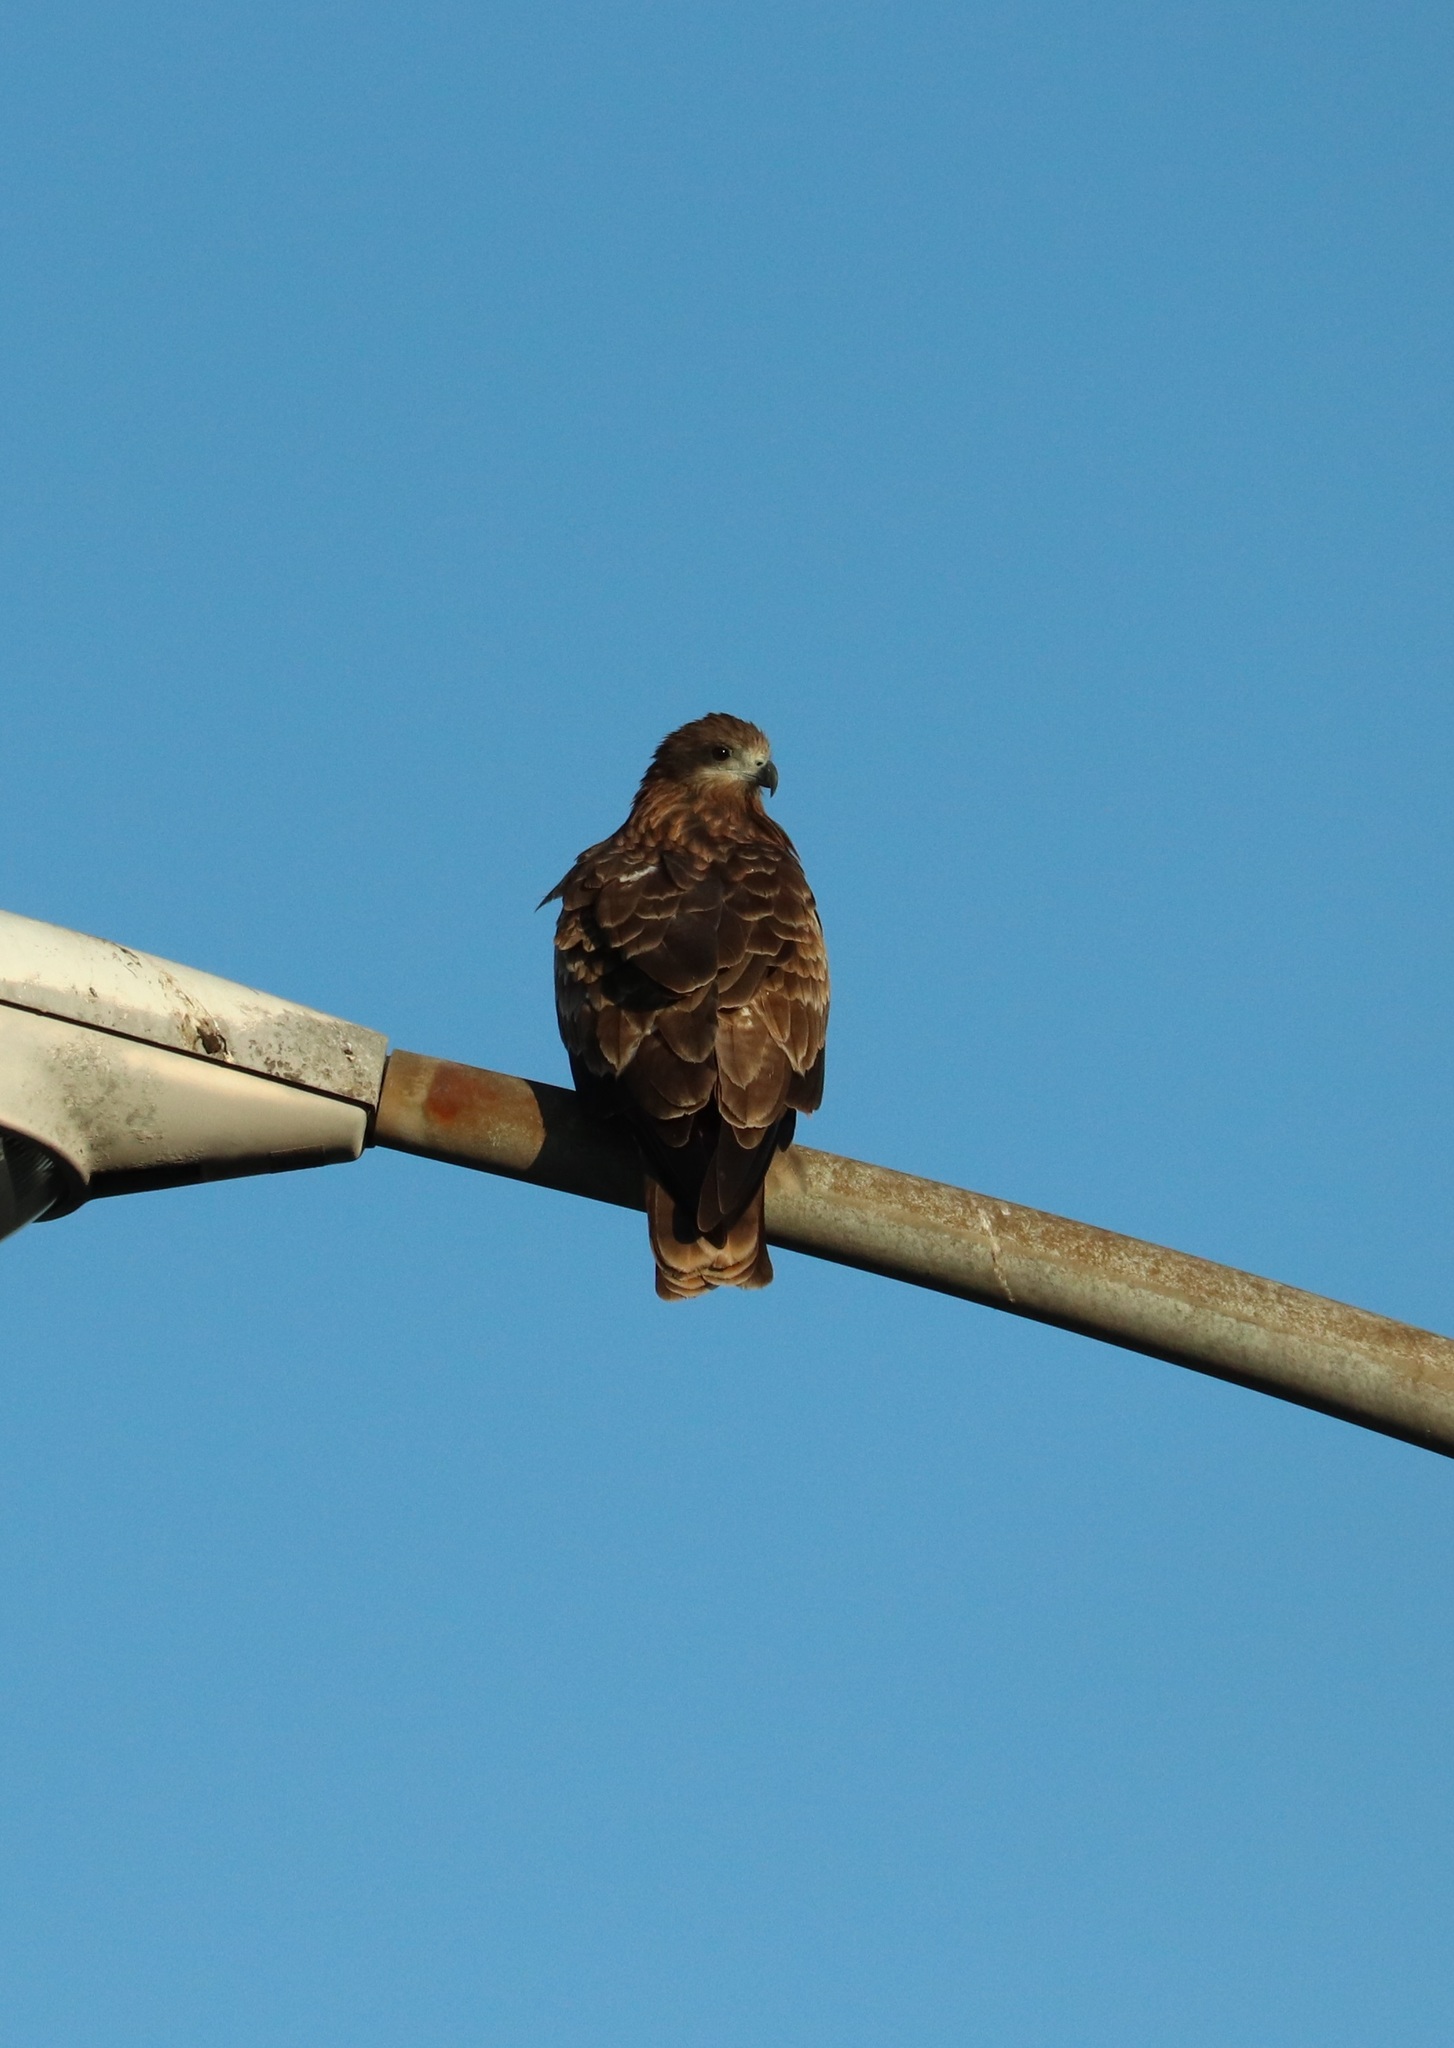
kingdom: Animalia
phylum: Chordata
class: Aves
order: Accipitriformes
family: Accipitridae
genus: Milvus
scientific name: Milvus migrans
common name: Black kite
